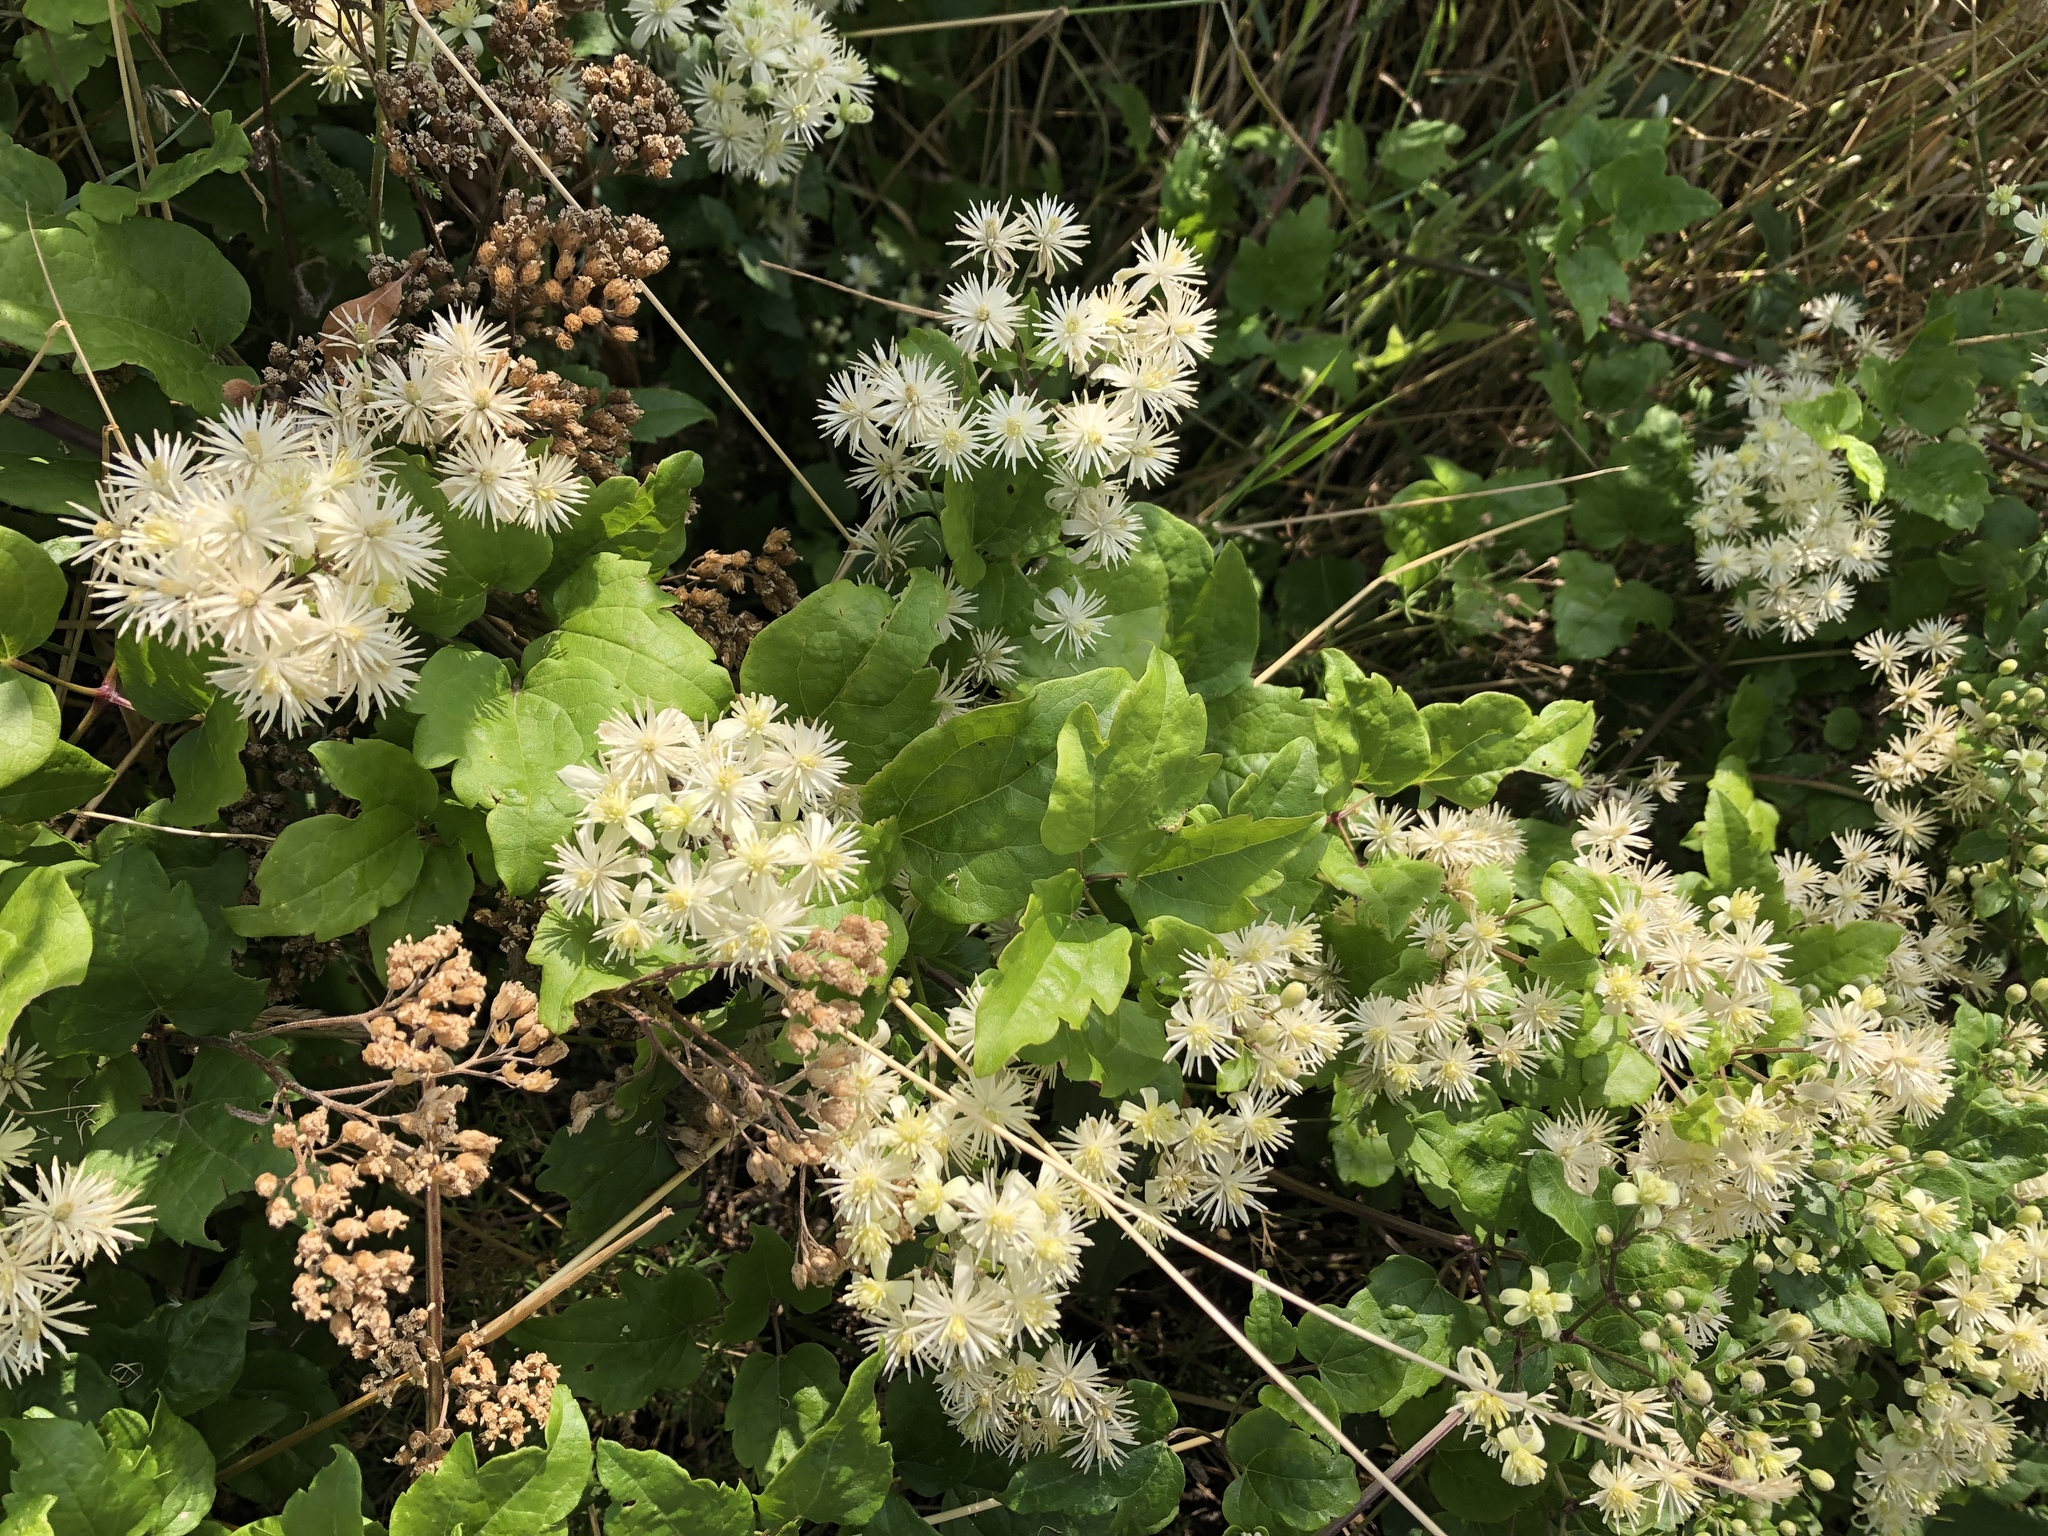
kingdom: Plantae
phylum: Tracheophyta
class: Magnoliopsida
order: Ranunculales
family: Ranunculaceae
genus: Clematis
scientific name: Clematis vitalba
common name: Evergreen clematis
